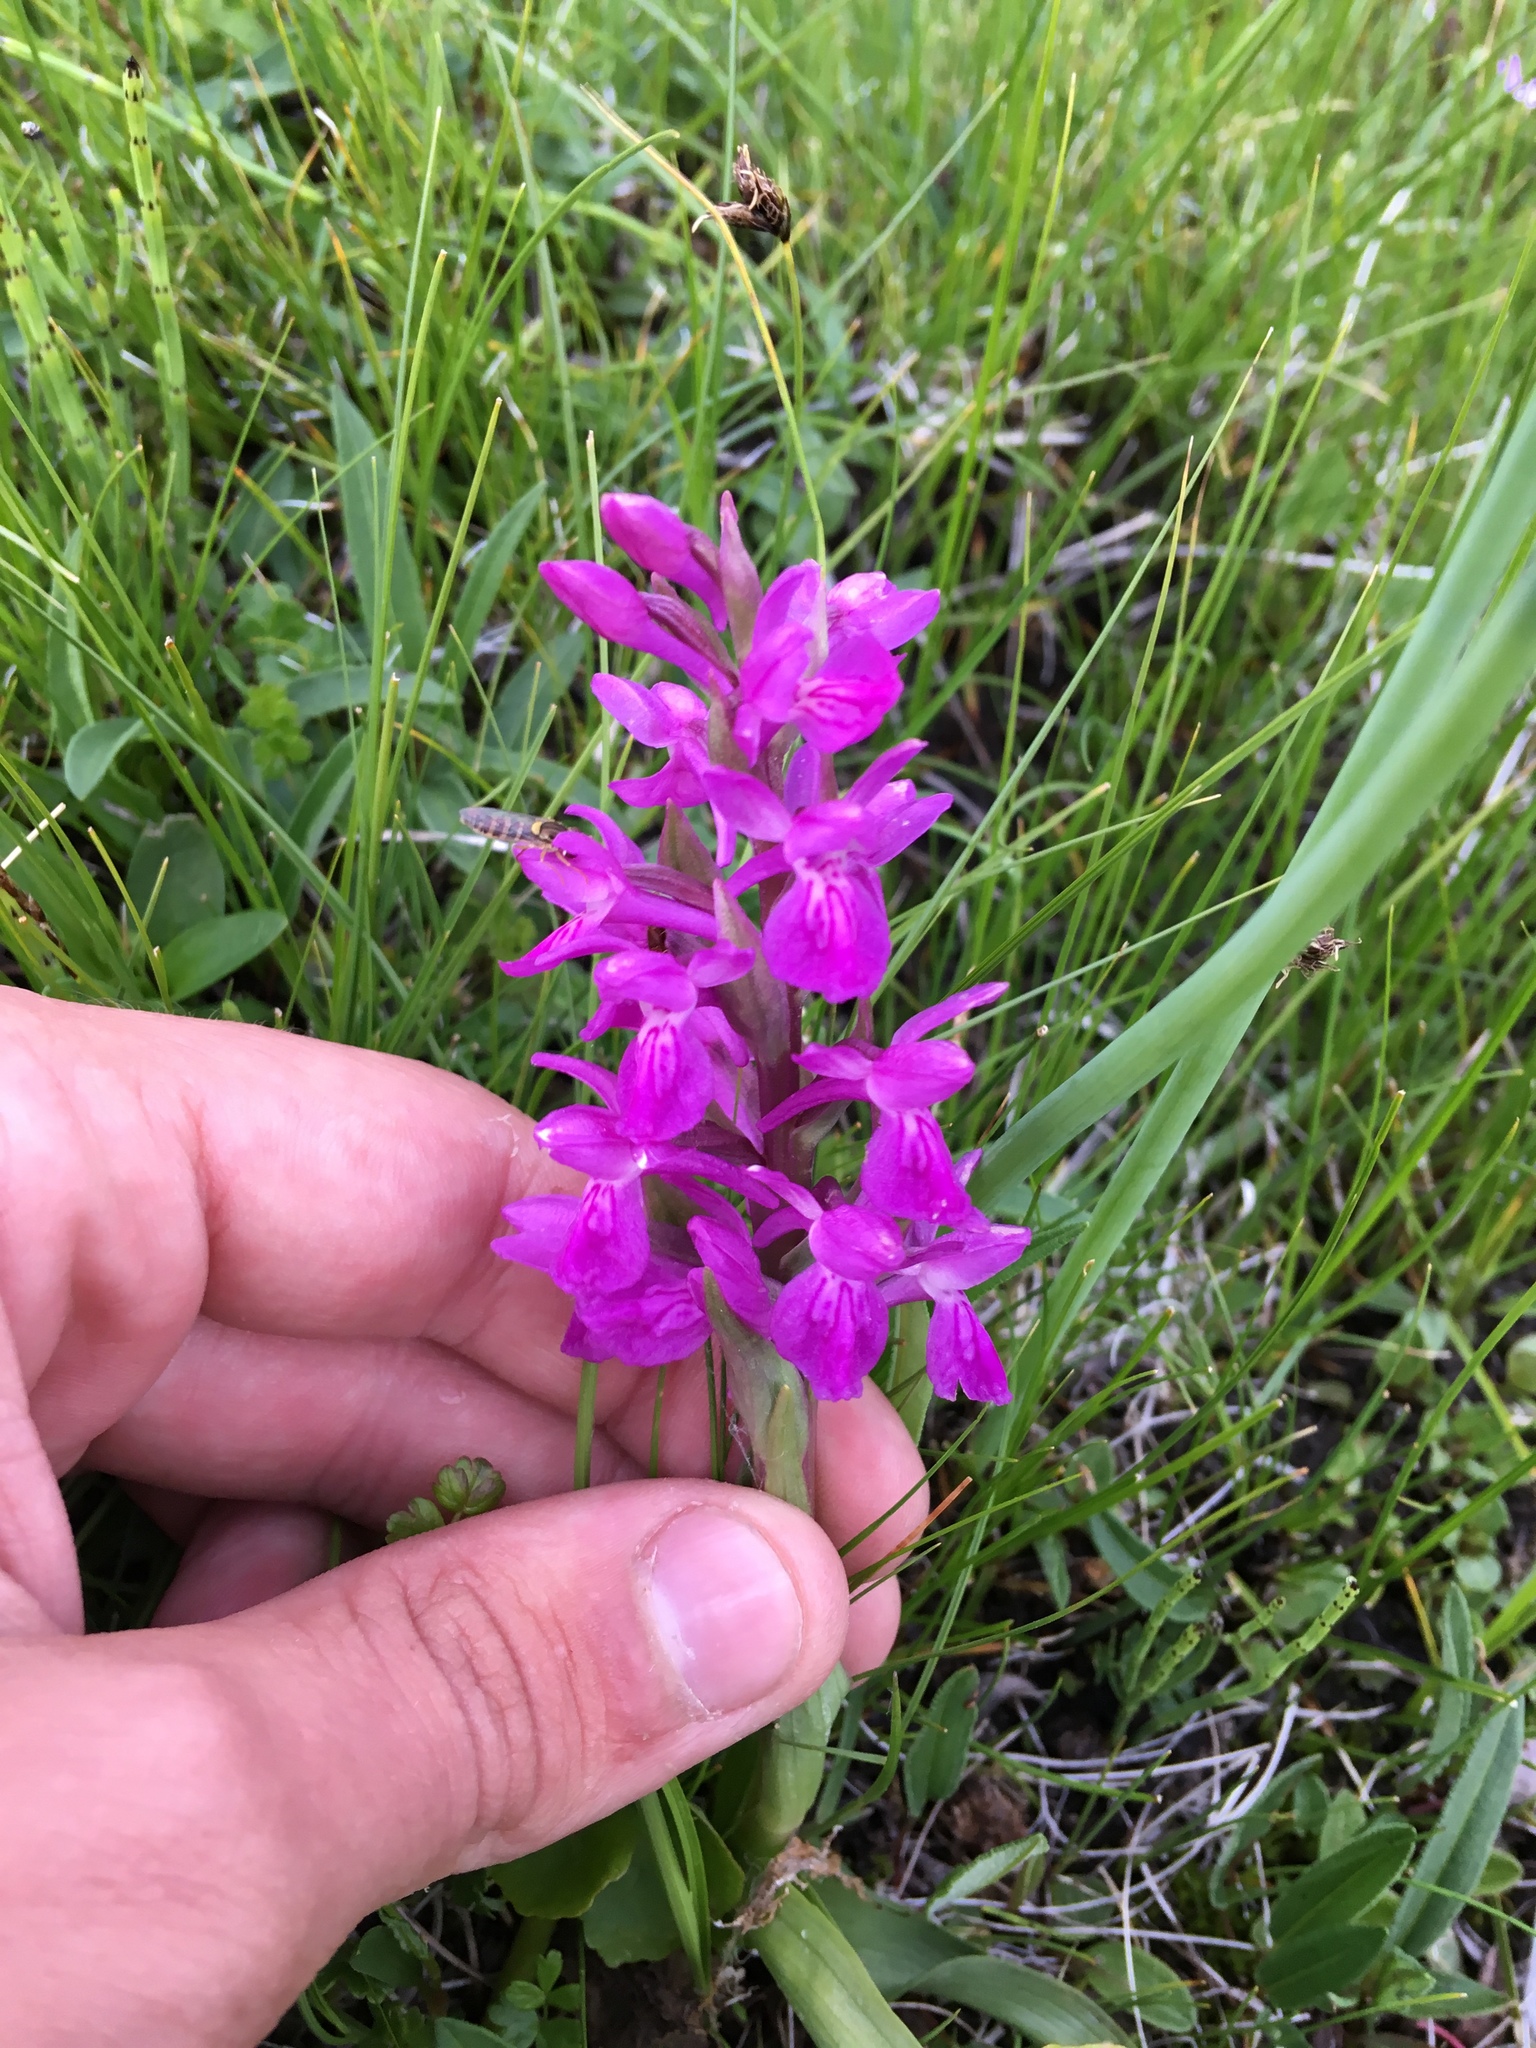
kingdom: Plantae
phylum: Tracheophyta
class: Liliopsida
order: Asparagales
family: Orchidaceae
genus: Dactylorhiza
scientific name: Dactylorhiza salina
